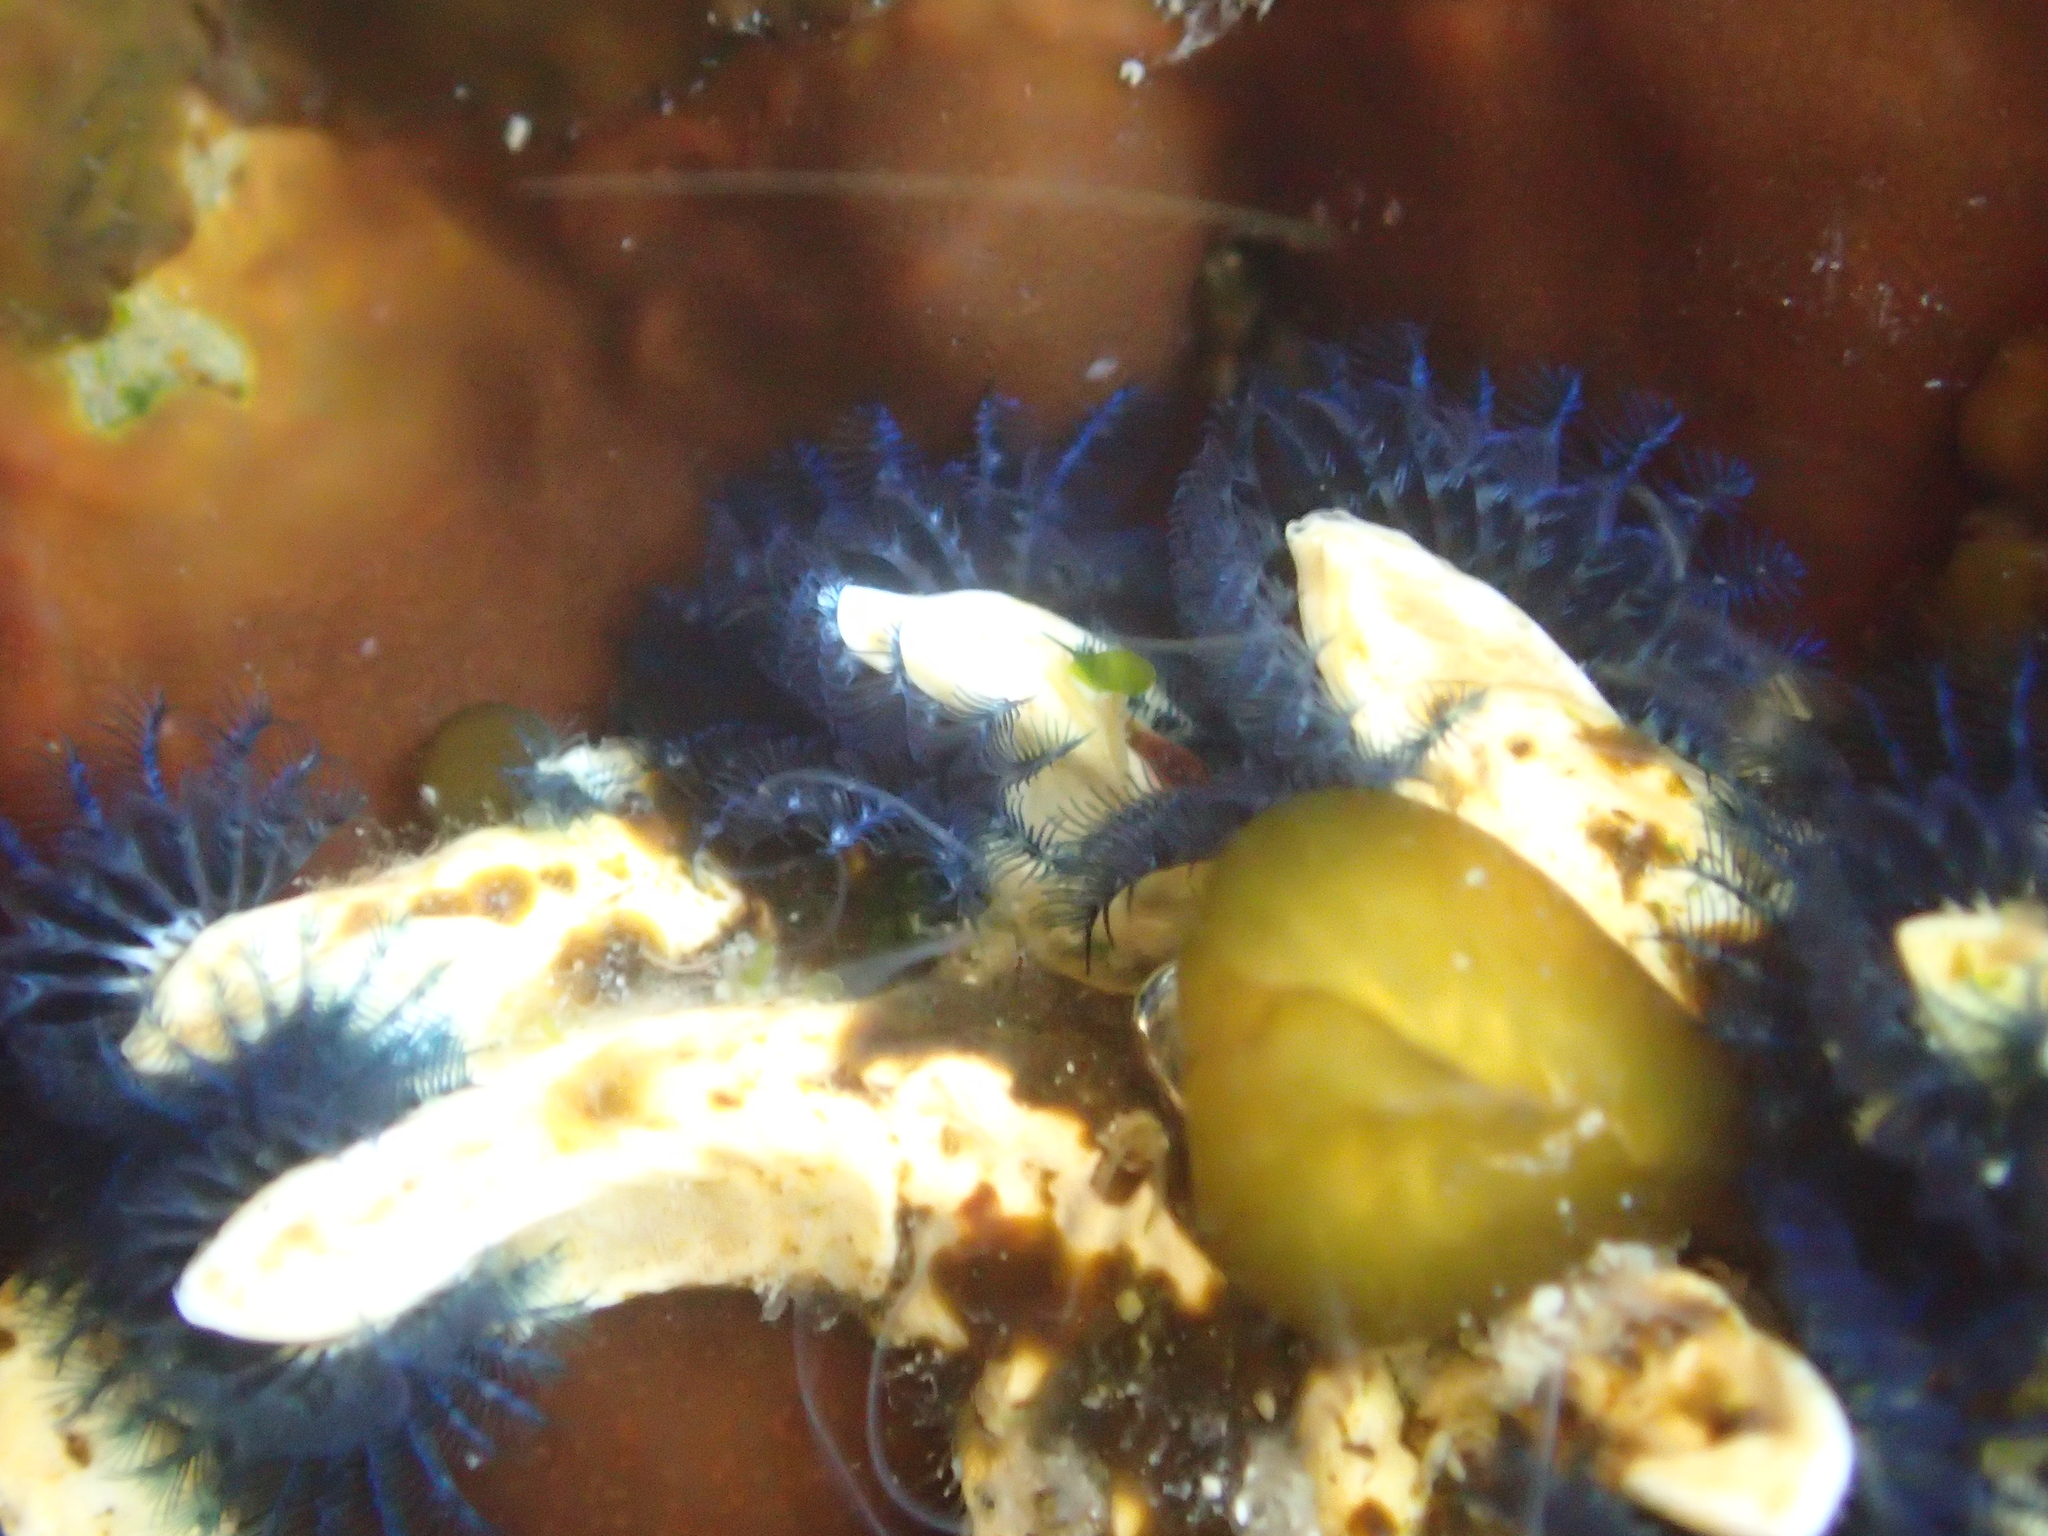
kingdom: Animalia
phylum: Annelida
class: Polychaeta
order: Sabellida
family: Serpulidae
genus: Spirobranchus
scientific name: Spirobranchus cariniferus
